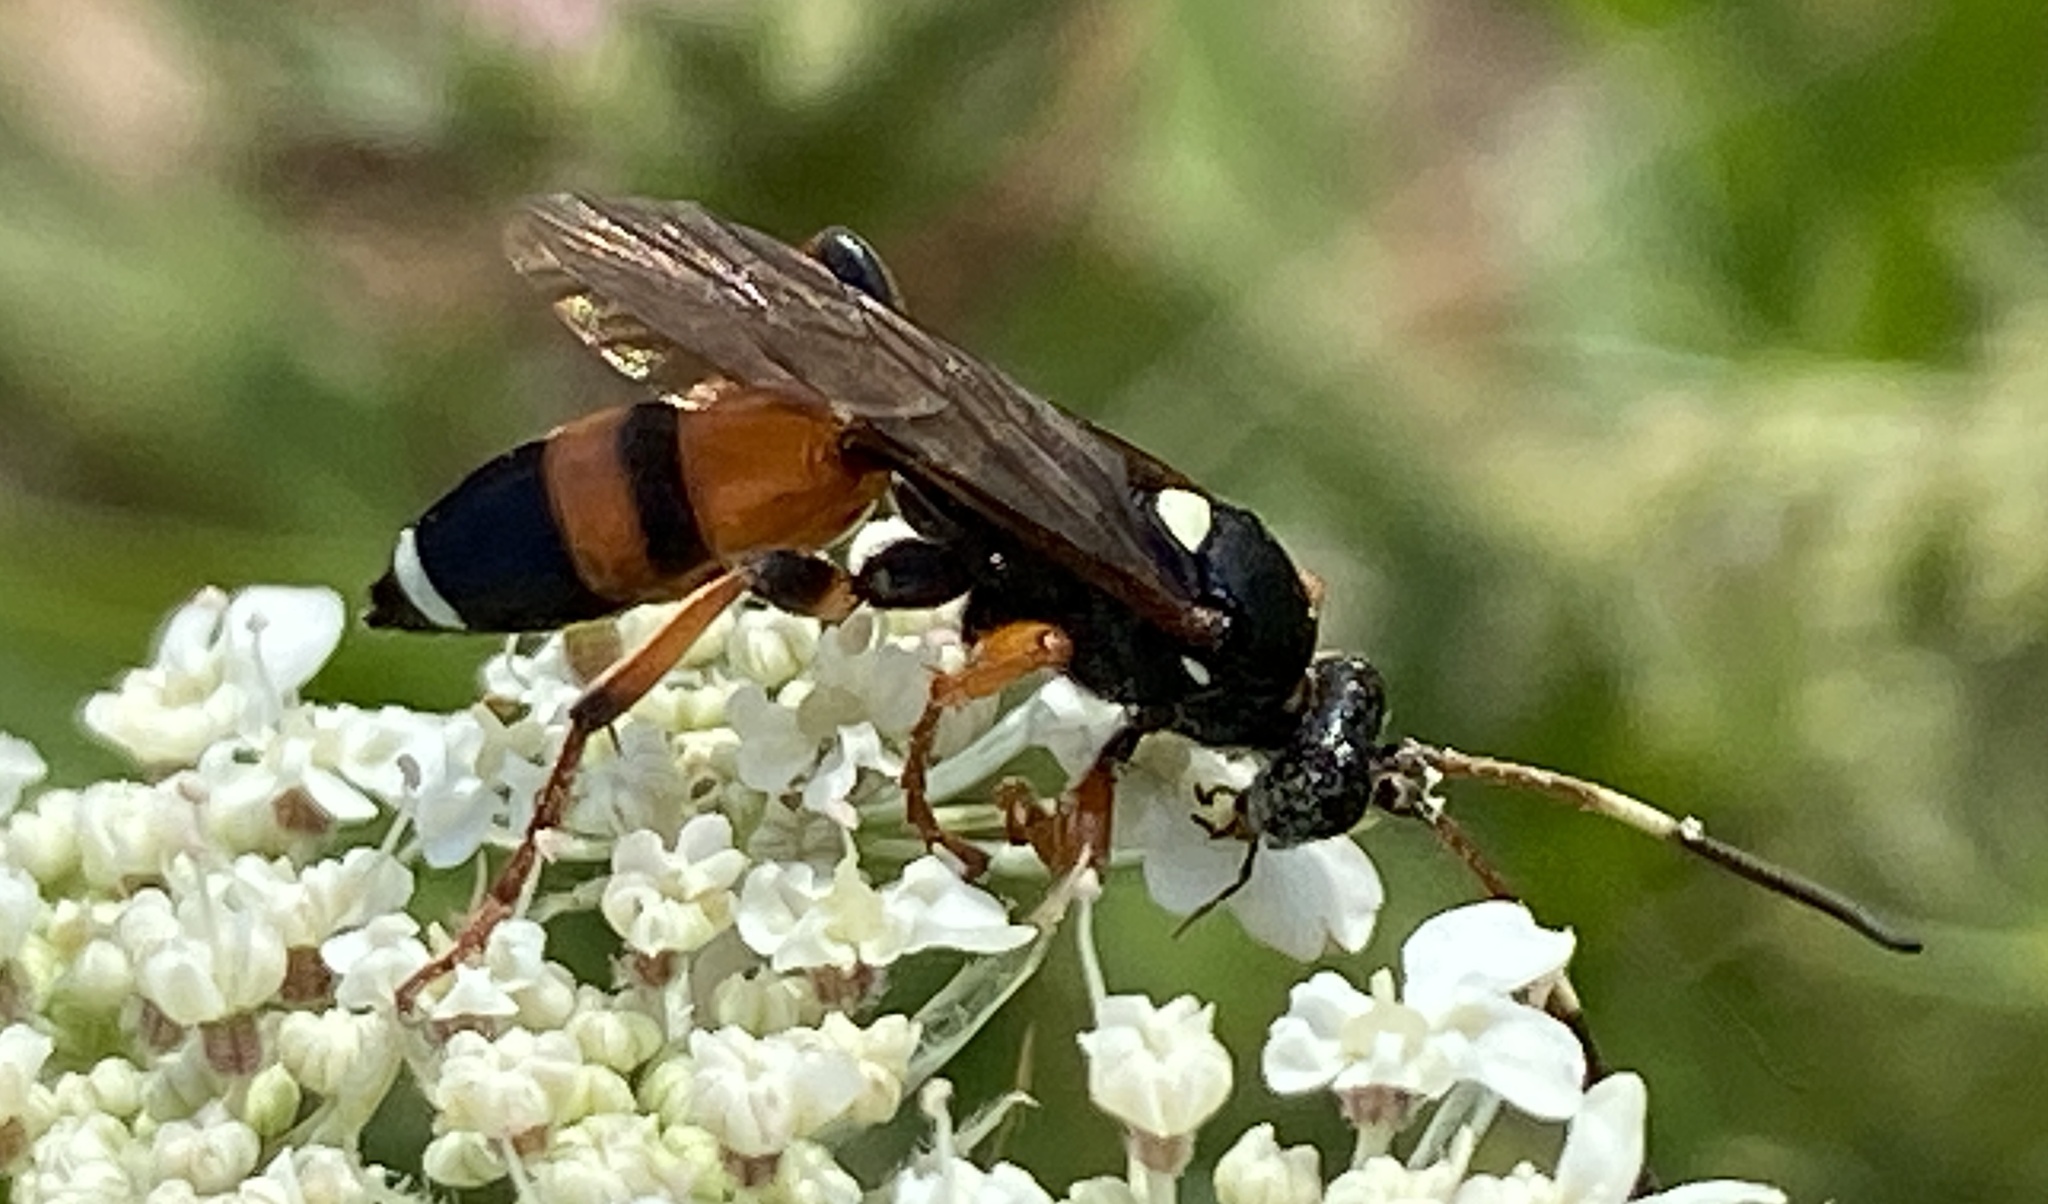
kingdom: Animalia
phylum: Arthropoda
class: Insecta
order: Hymenoptera
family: Ichneumonidae
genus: Ichneumon
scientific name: Ichneumon sarcitorius
